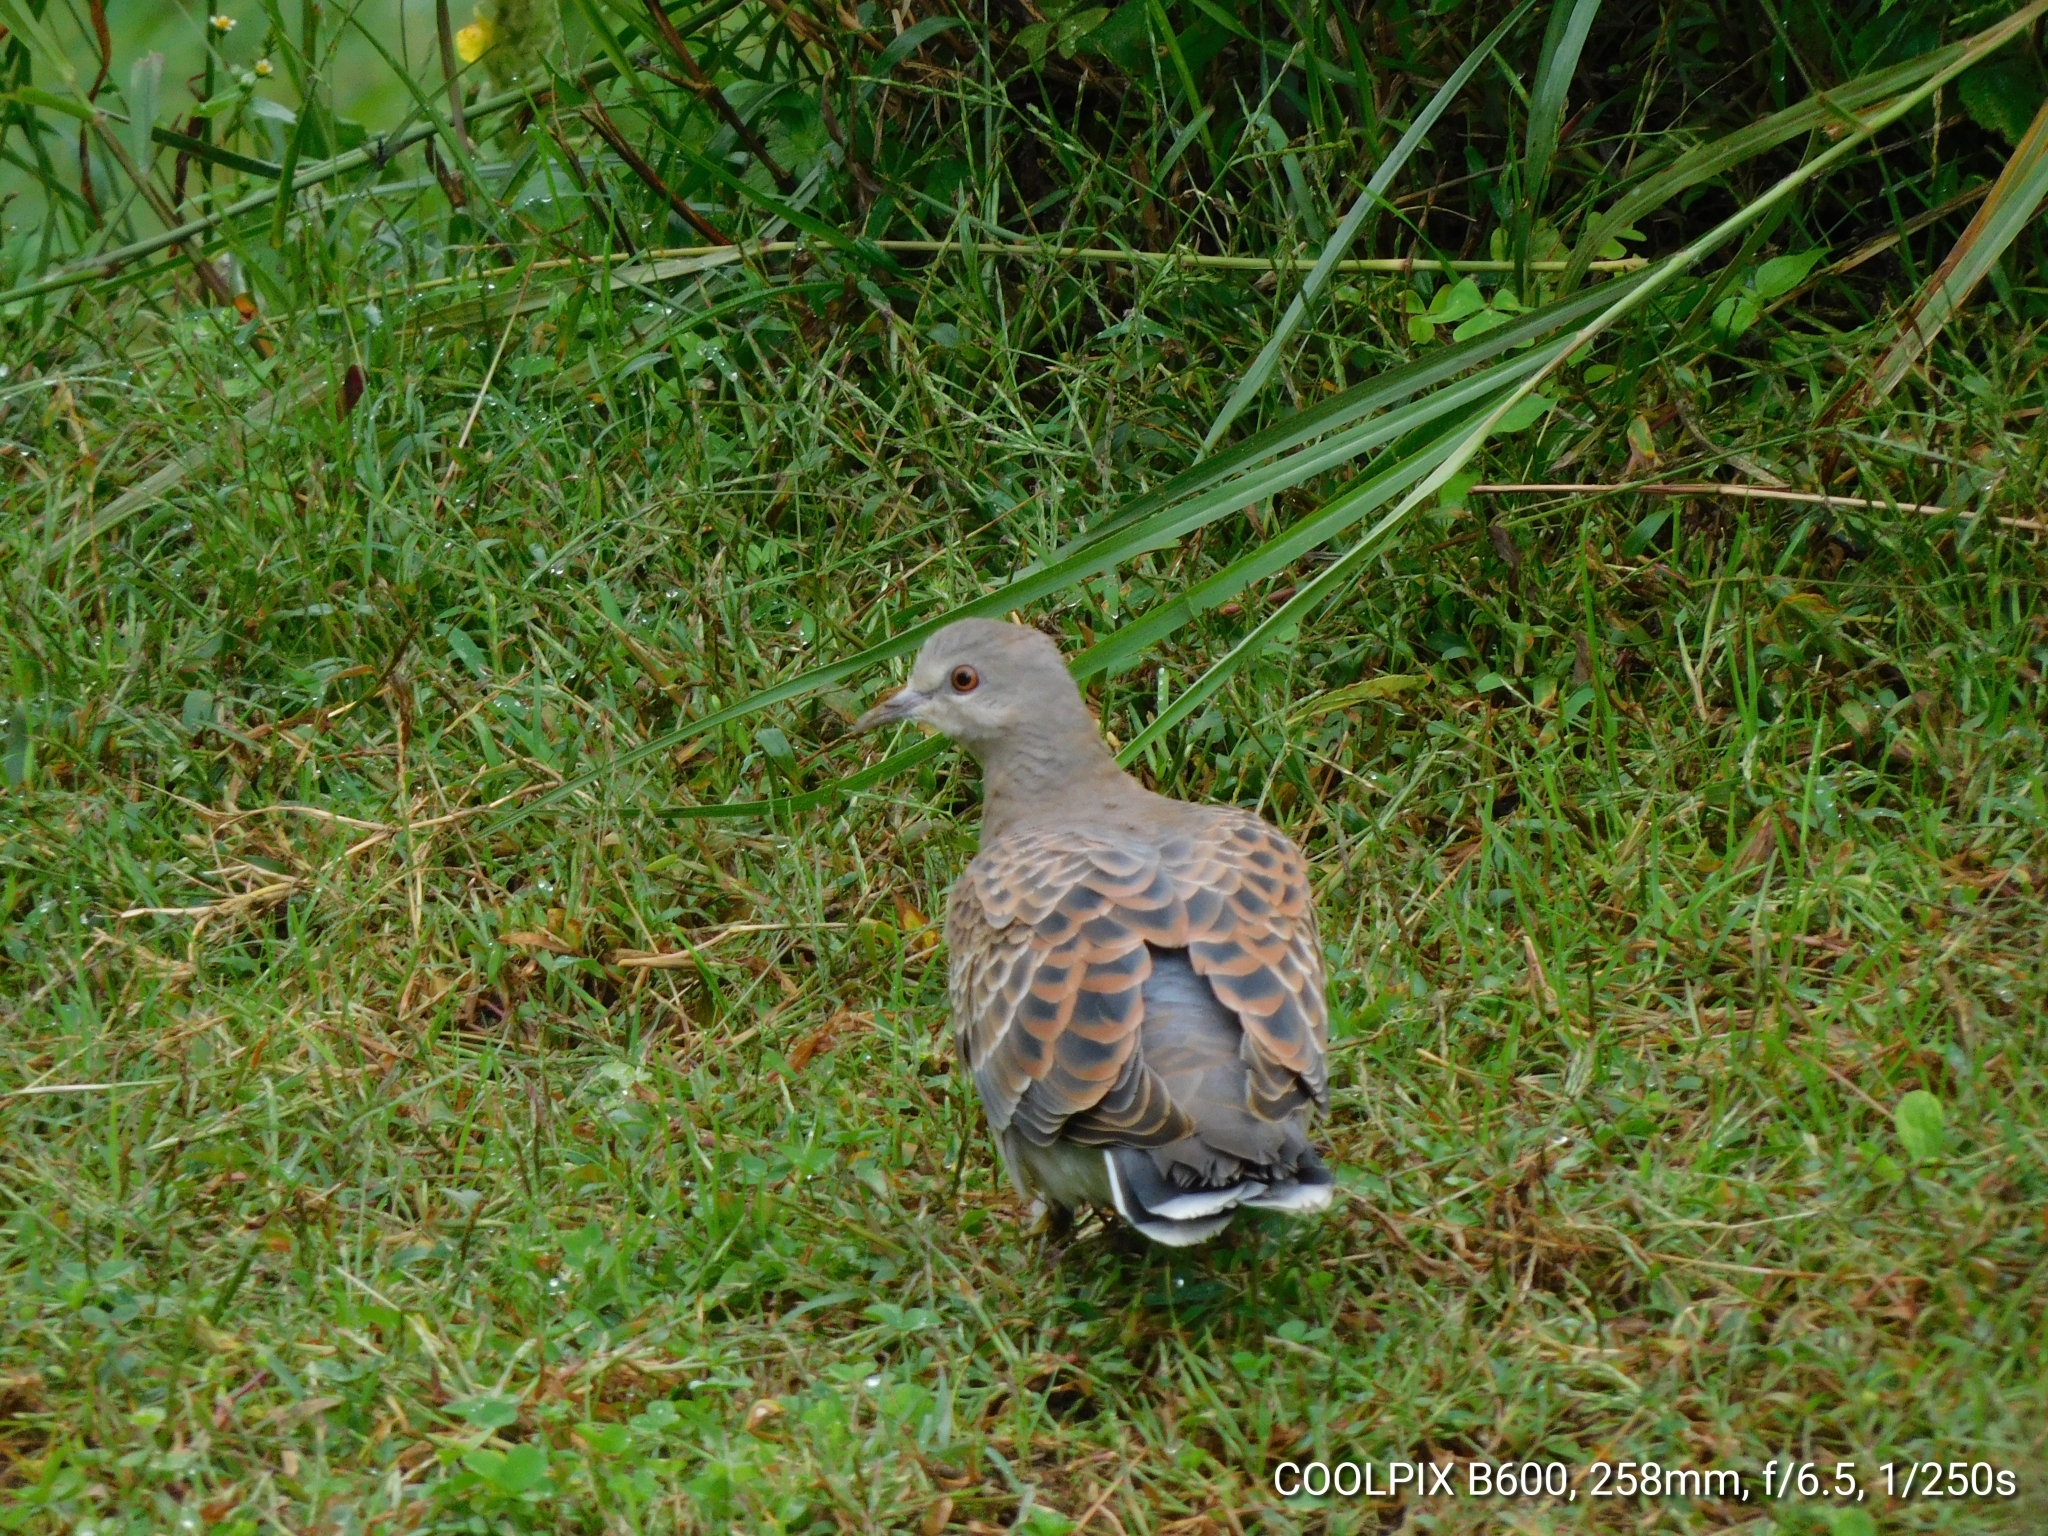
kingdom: Animalia
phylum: Chordata
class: Aves
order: Columbiformes
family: Columbidae
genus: Streptopelia
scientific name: Streptopelia orientalis
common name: Oriental turtle dove
